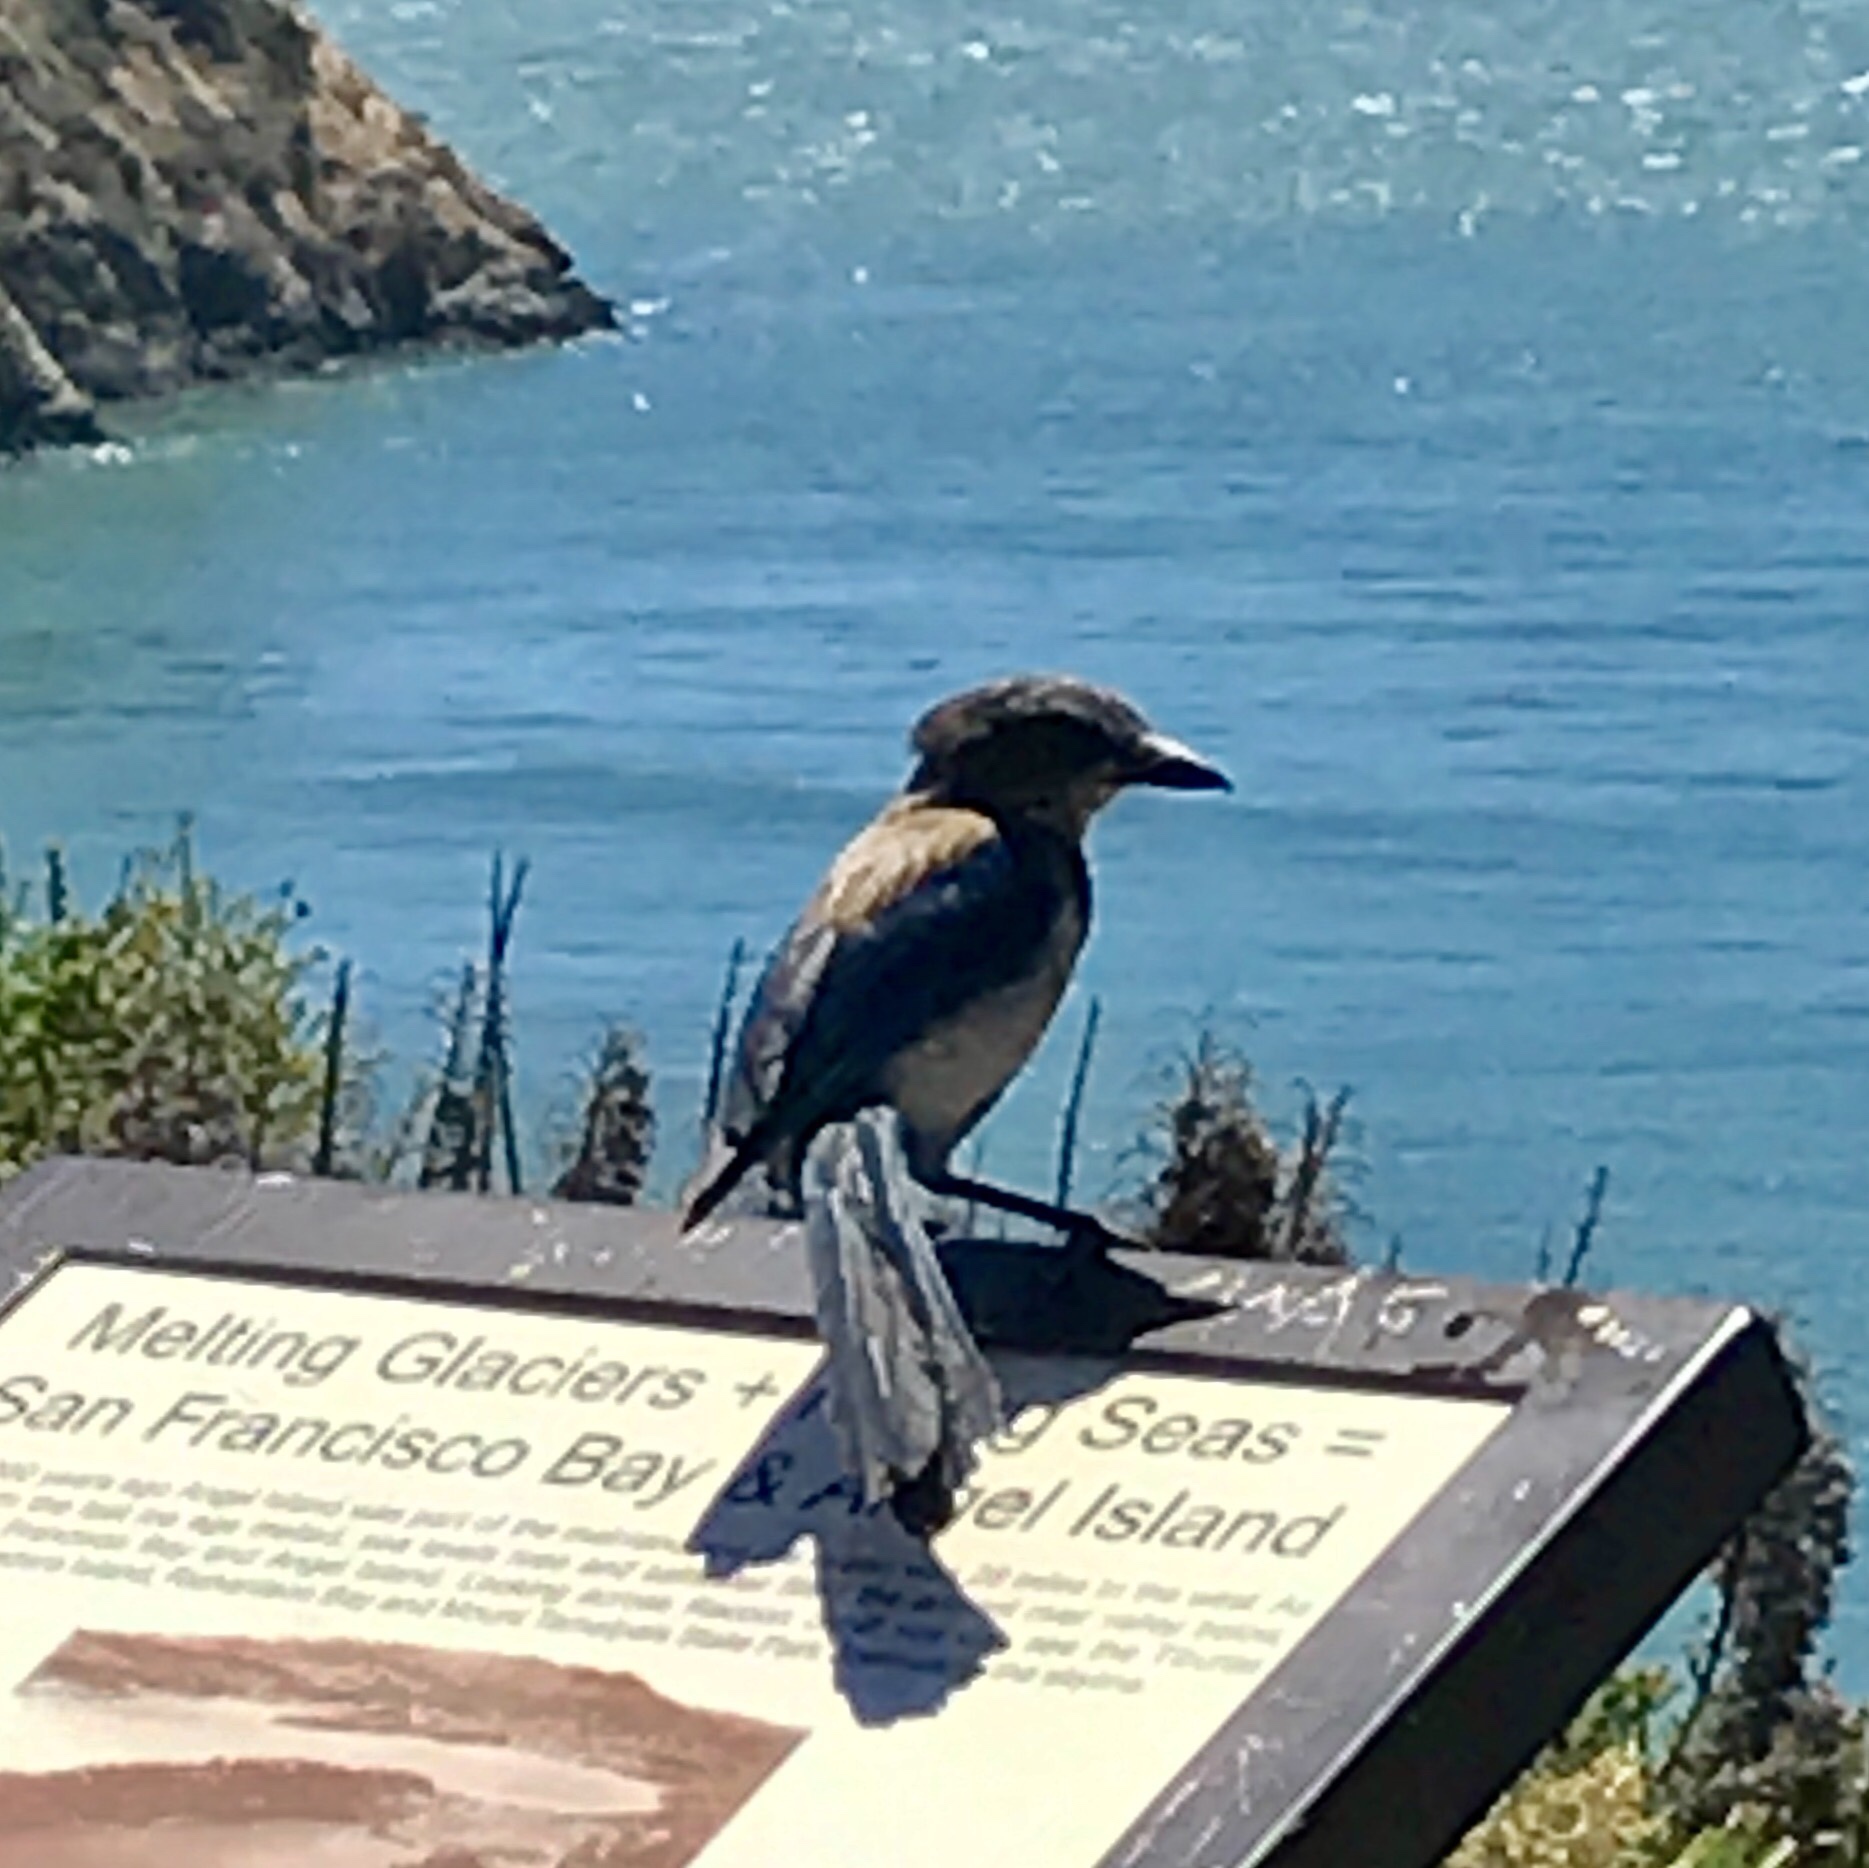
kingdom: Animalia
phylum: Chordata
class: Aves
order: Passeriformes
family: Corvidae
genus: Aphelocoma
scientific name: Aphelocoma californica
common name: California scrub-jay
